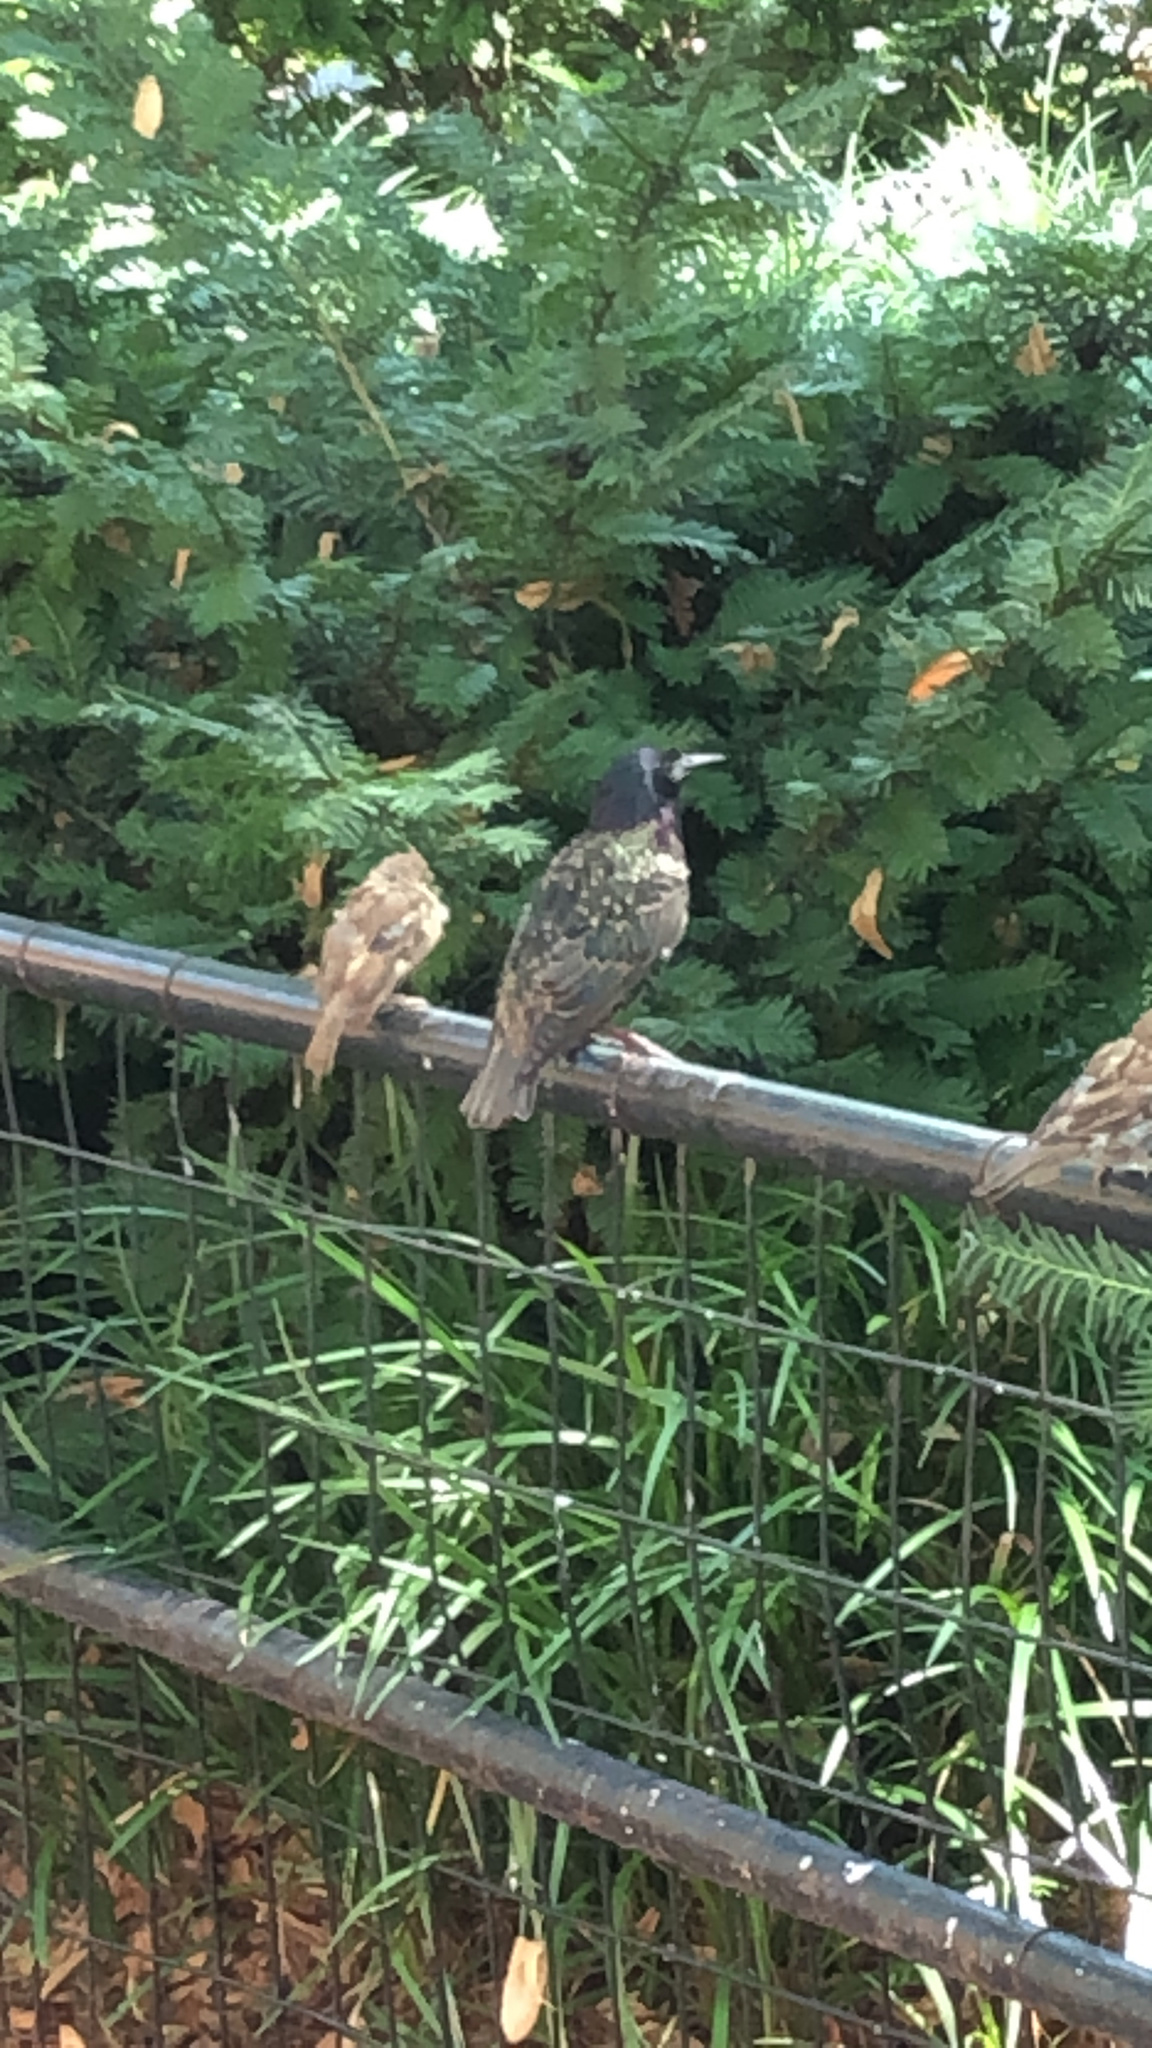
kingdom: Animalia
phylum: Chordata
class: Aves
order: Passeriformes
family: Sturnidae
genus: Sturnus
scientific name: Sturnus vulgaris
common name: Common starling
